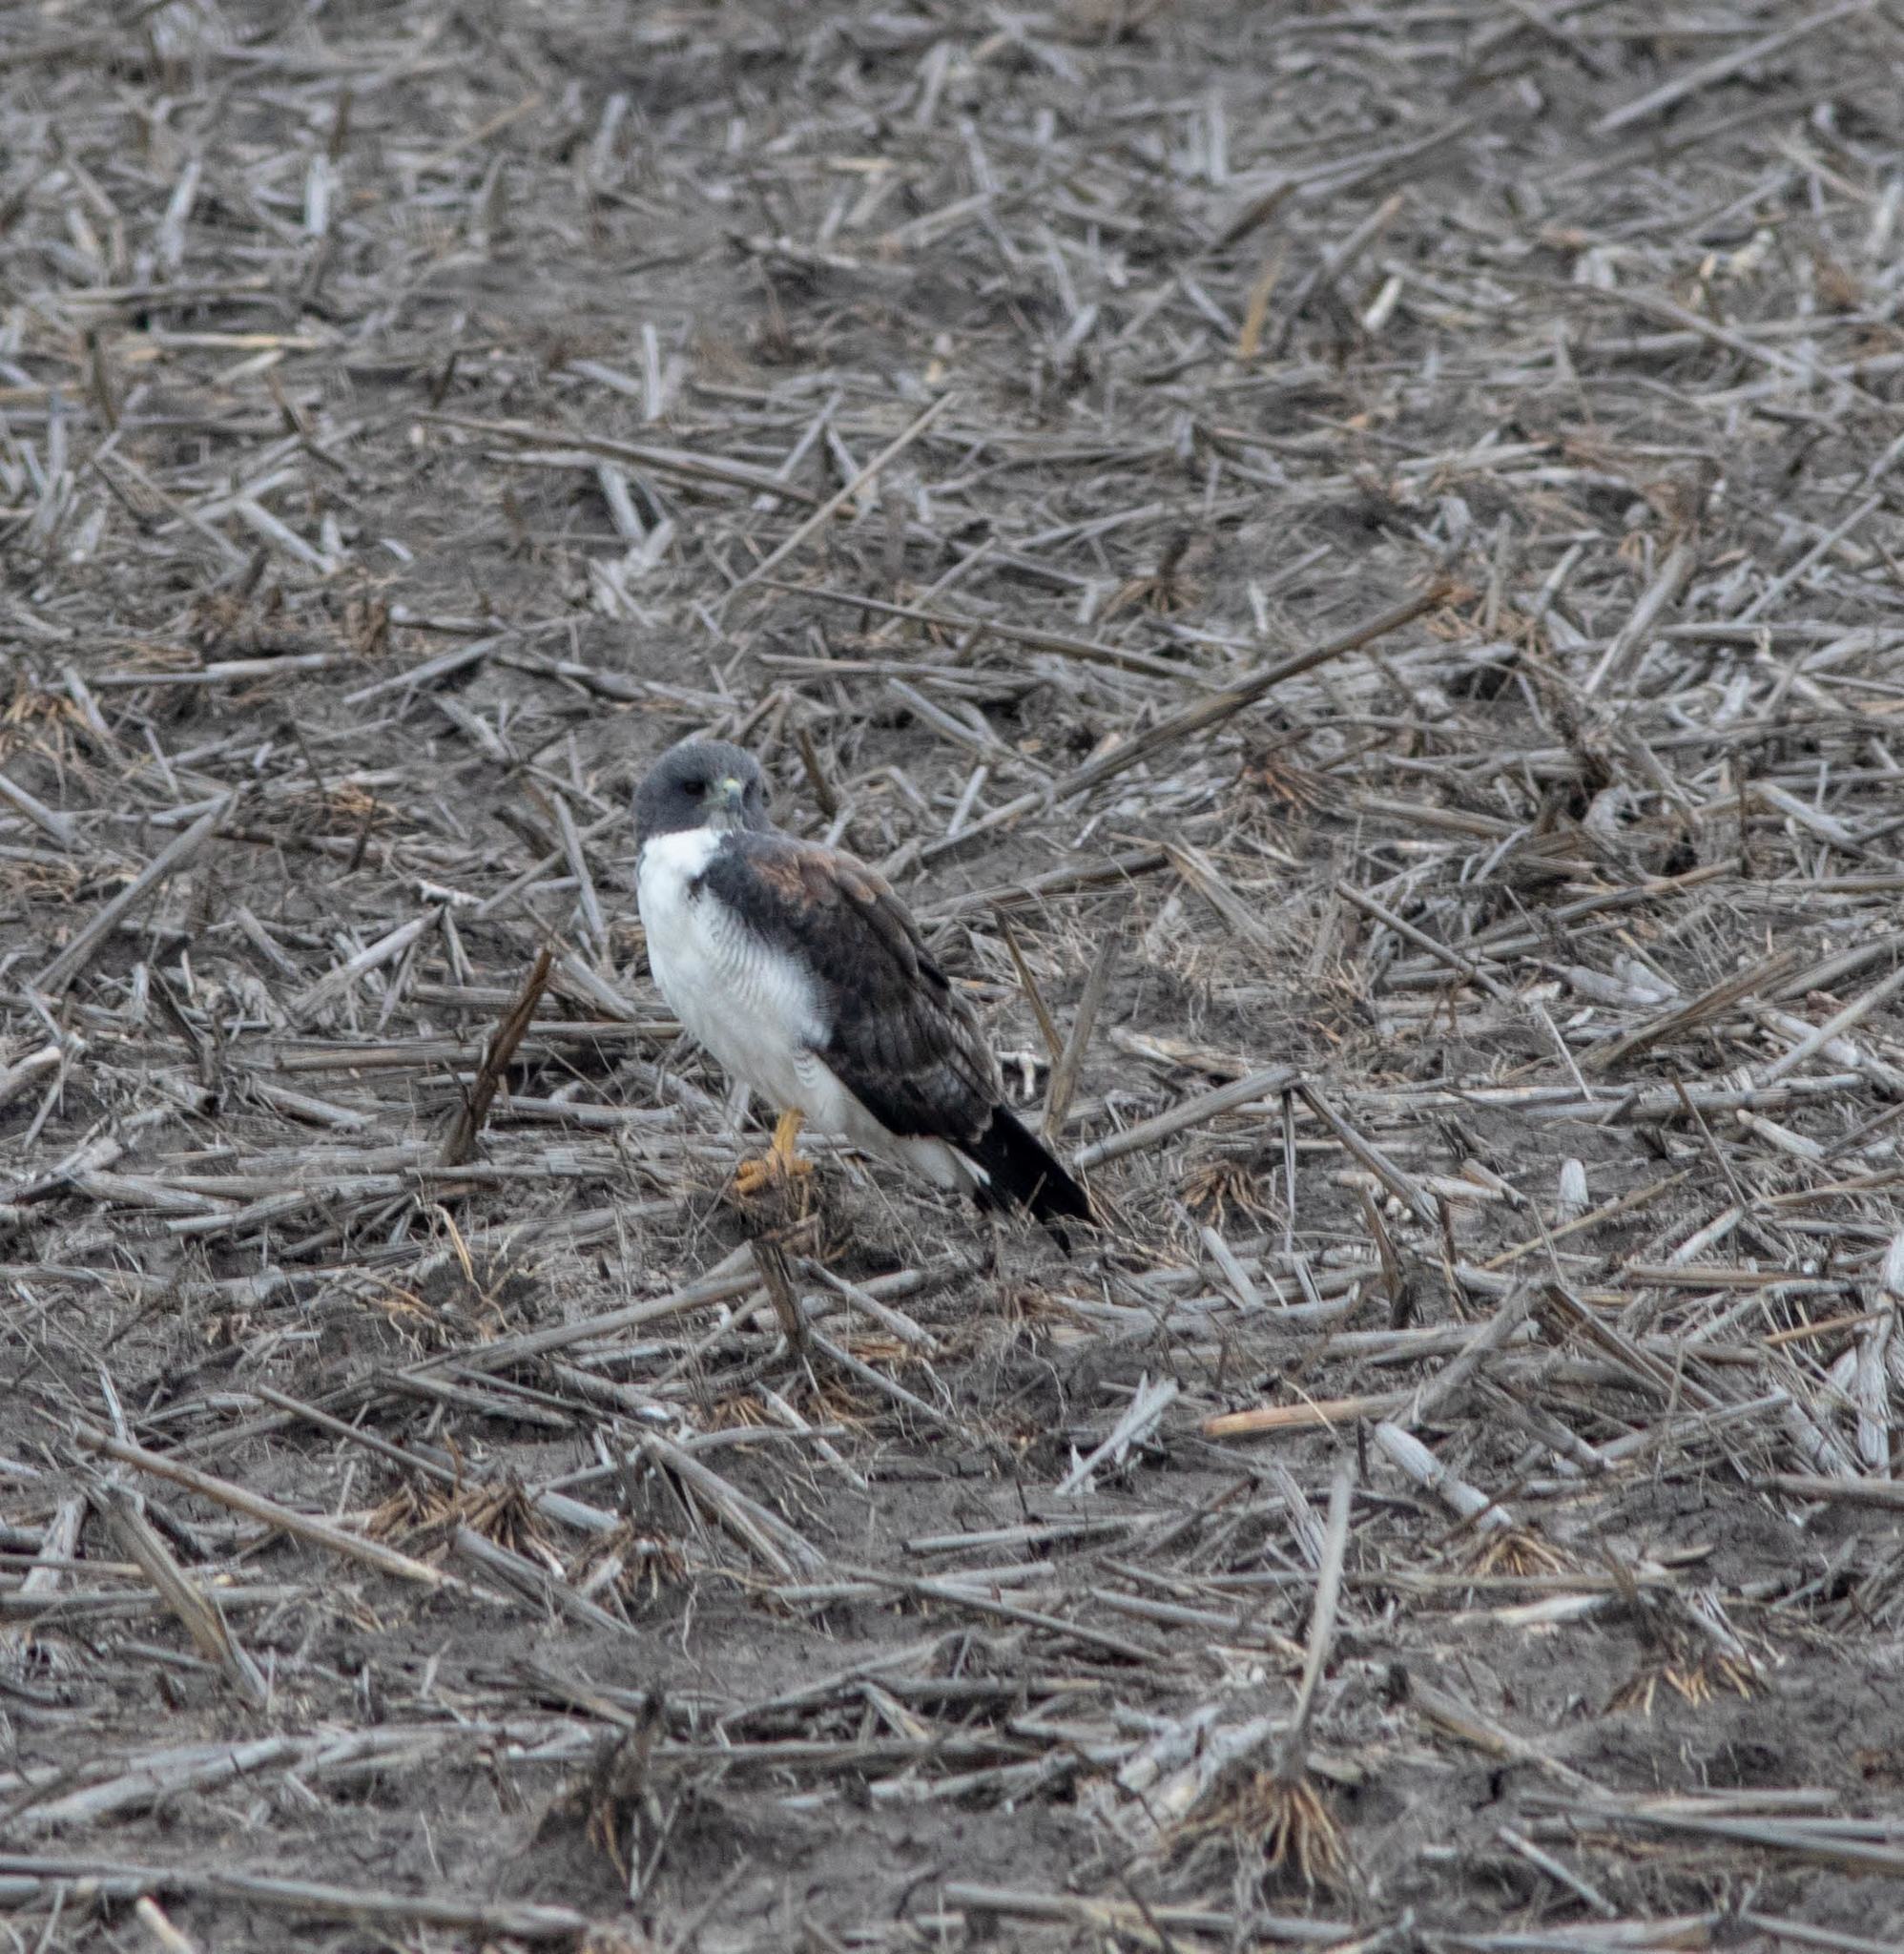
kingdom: Animalia
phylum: Chordata
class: Aves
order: Accipitriformes
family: Accipitridae
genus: Buteo
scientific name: Buteo albicaudatus
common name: White-tailed hawk
